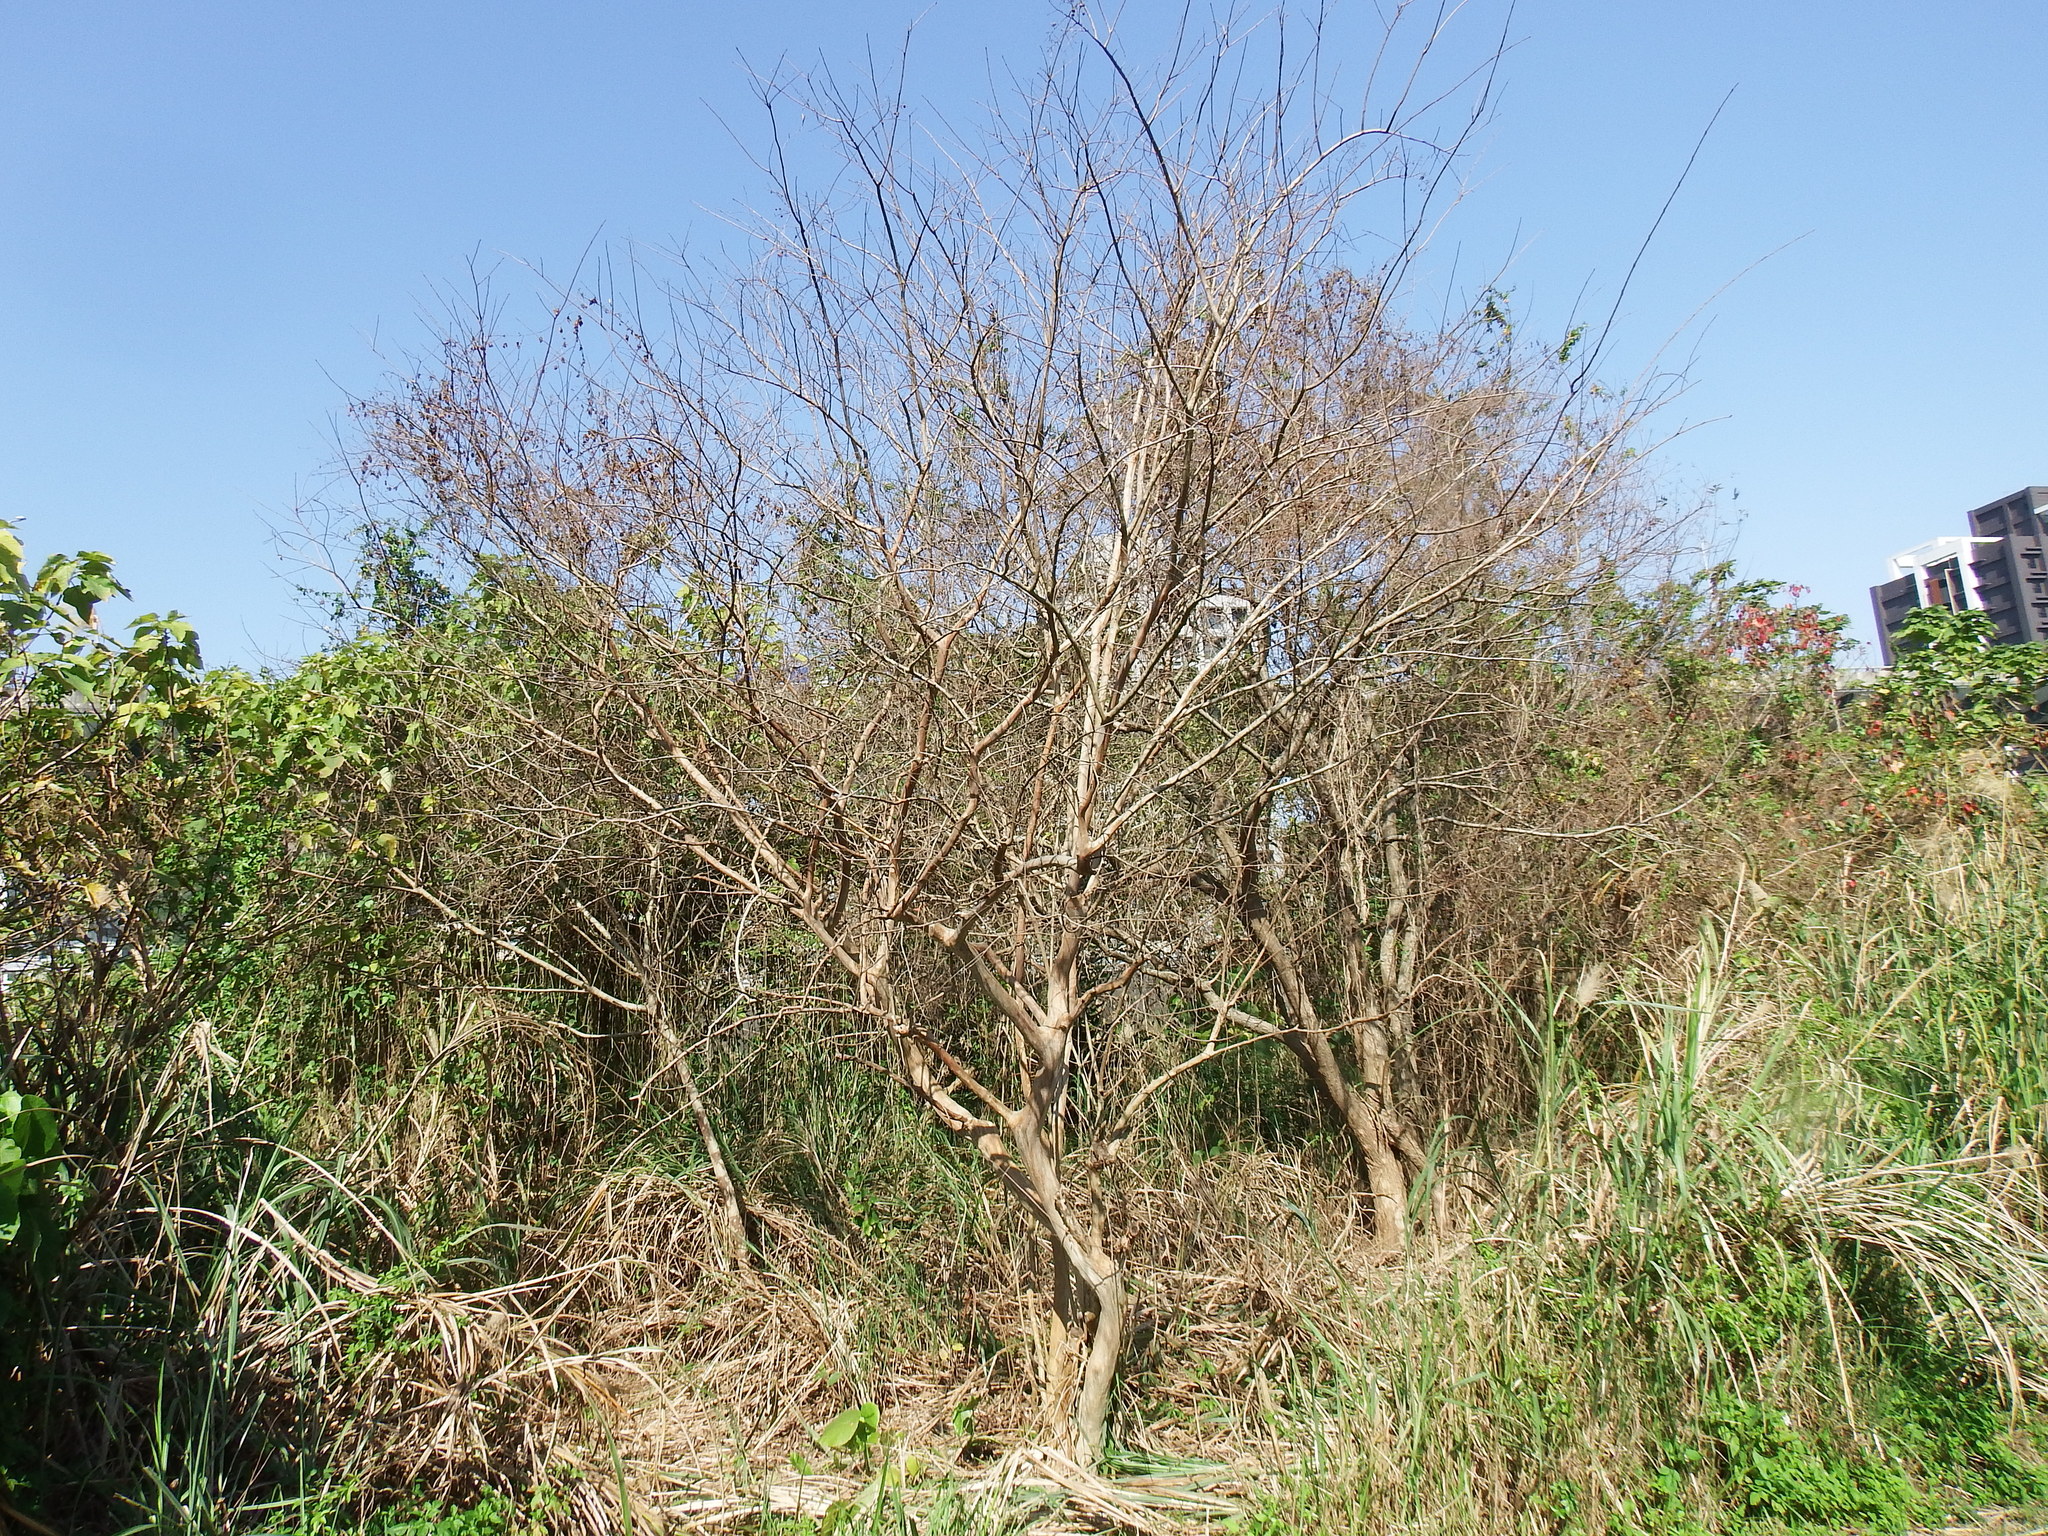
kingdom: Plantae
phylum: Tracheophyta
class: Magnoliopsida
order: Myrtales
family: Lythraceae
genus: Lagerstroemia
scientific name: Lagerstroemia subcostata
